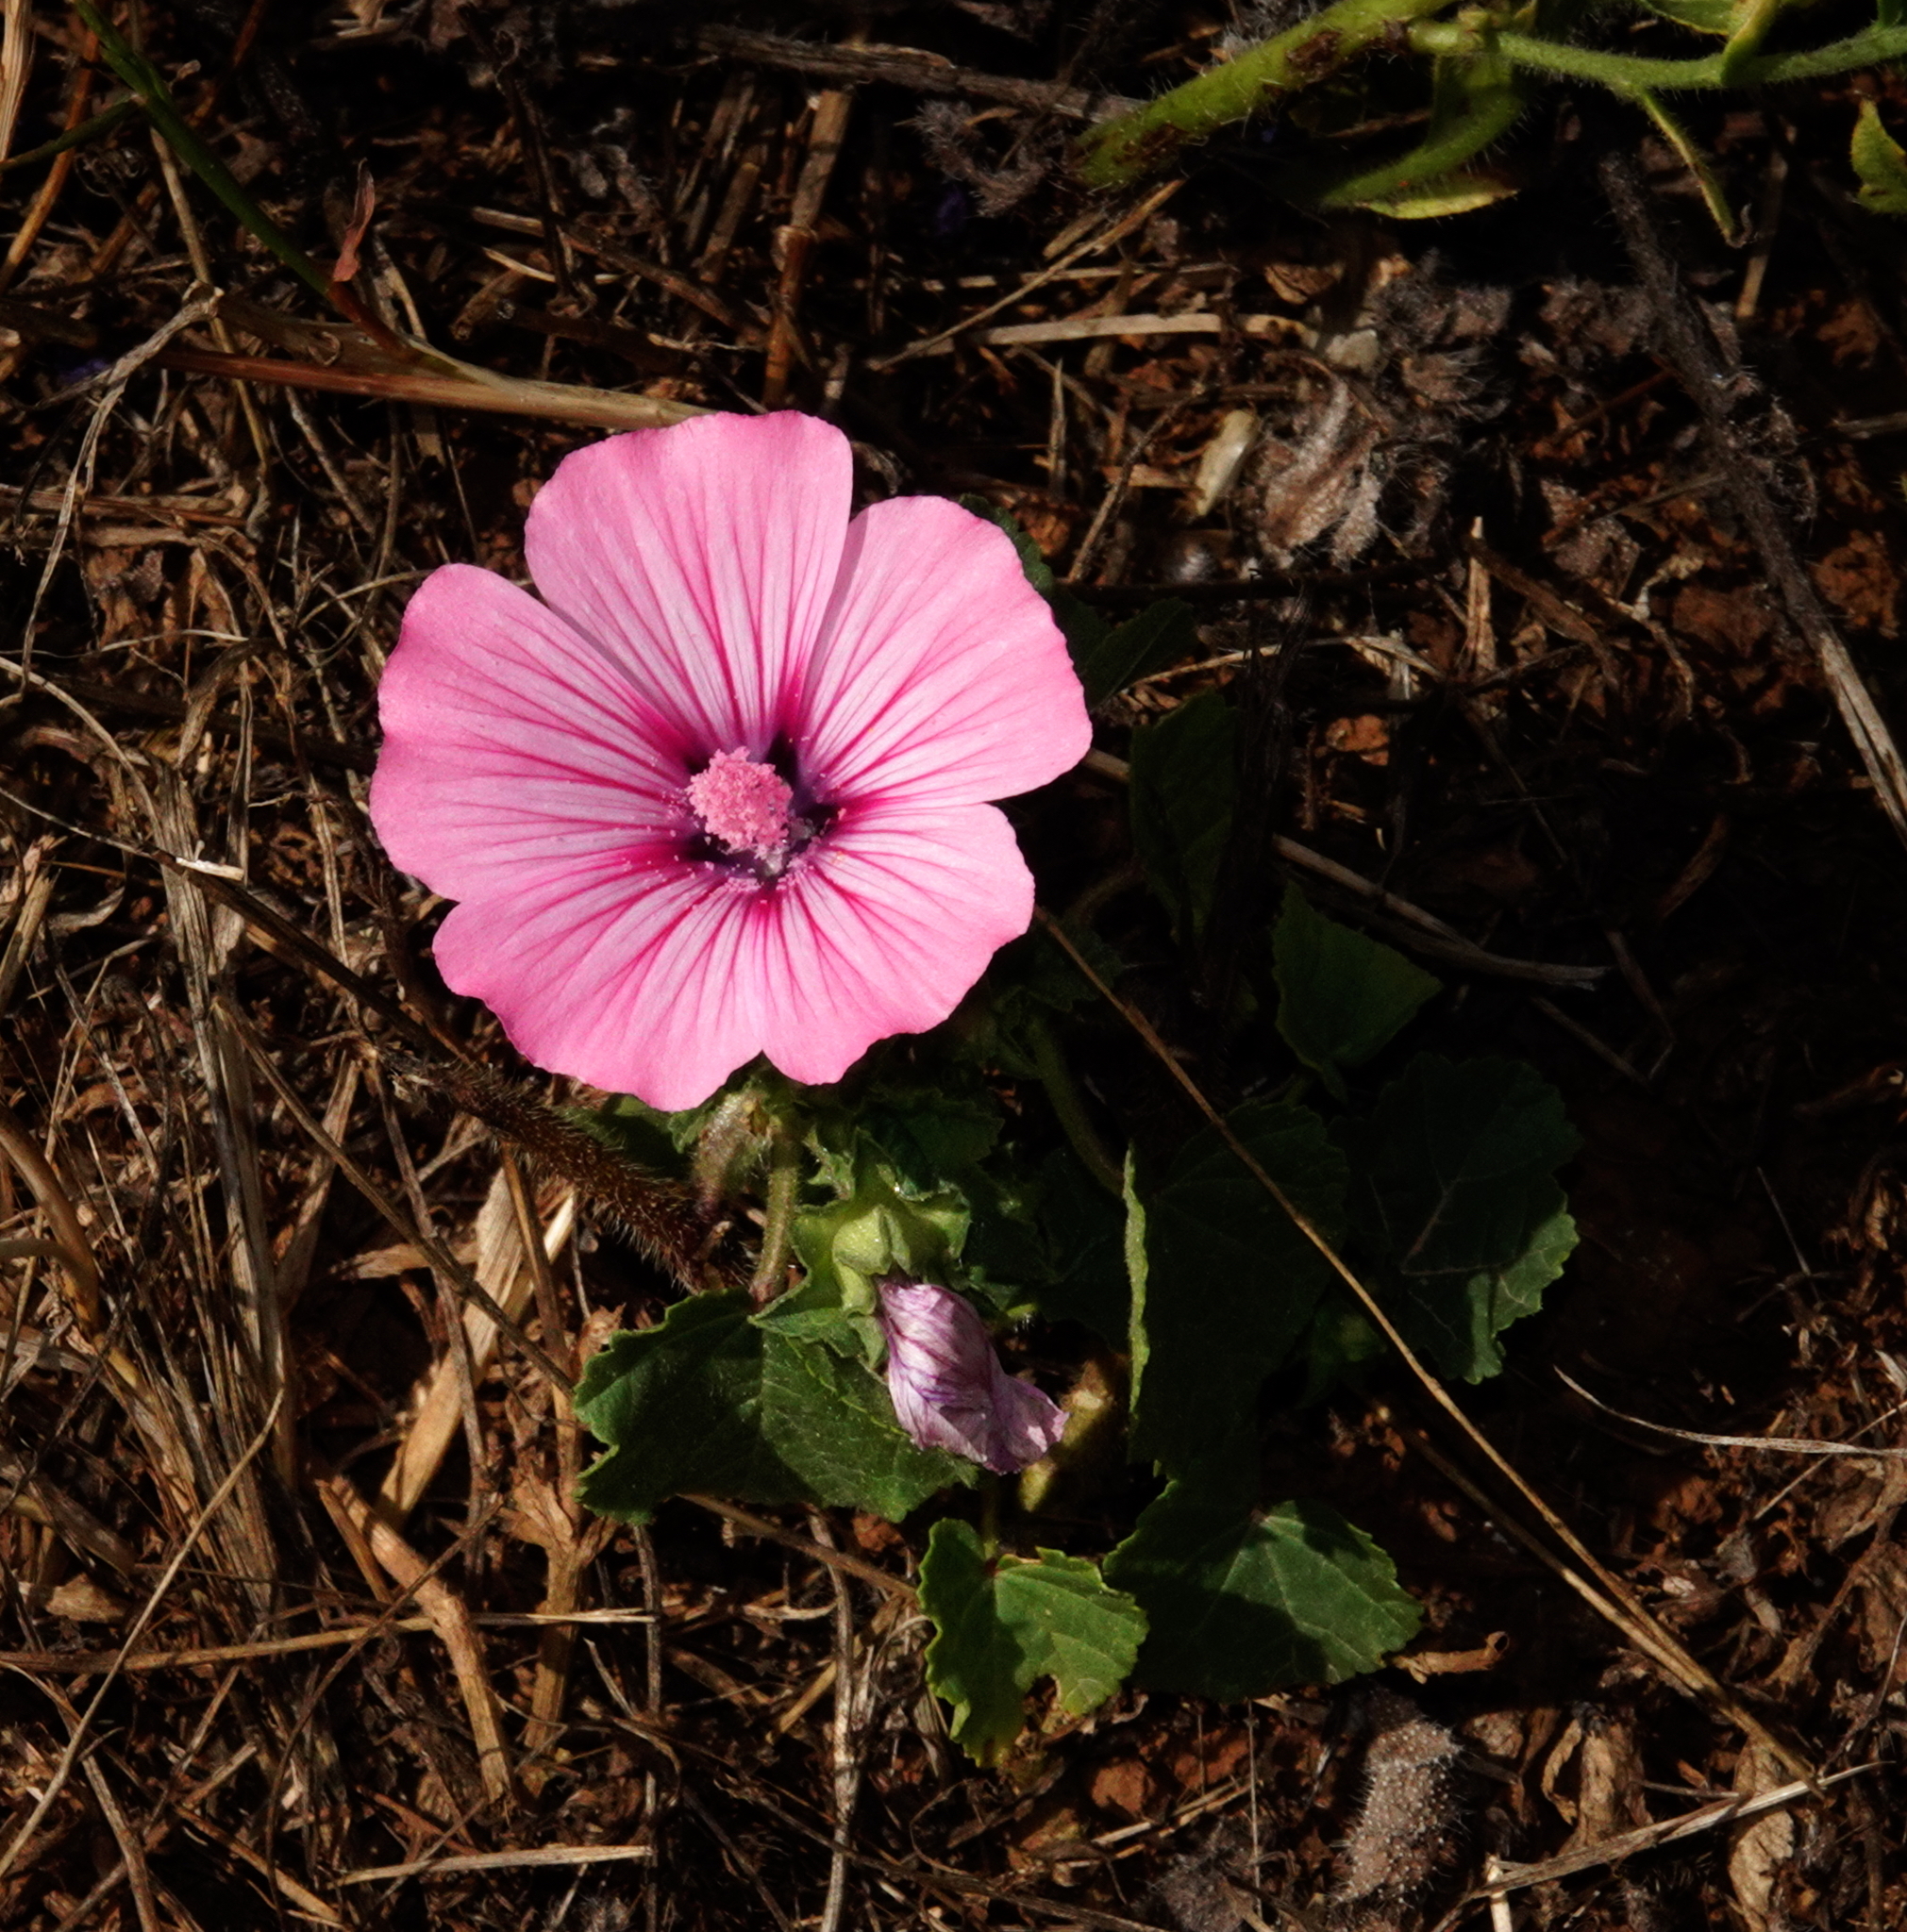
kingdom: Plantae
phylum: Tracheophyta
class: Magnoliopsida
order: Malvales
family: Malvaceae
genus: Malva
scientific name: Malva trimestris
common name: Royal mallow
